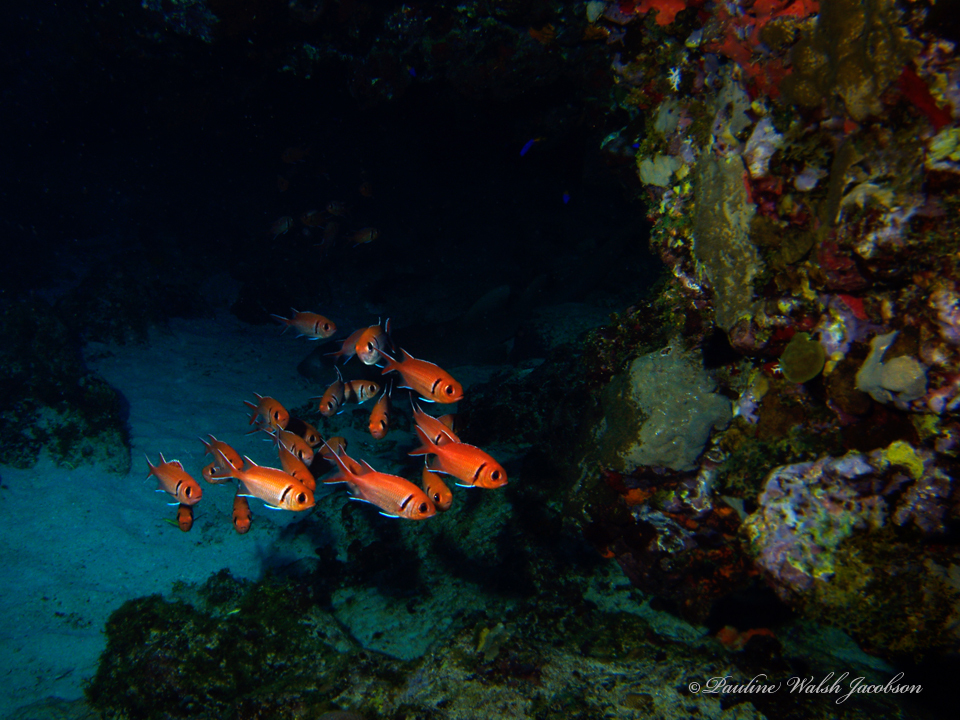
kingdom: Animalia
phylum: Chordata
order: Beryciformes
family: Holocentridae
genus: Myripristis
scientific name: Myripristis jacobus
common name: Blackbar soldierfish
